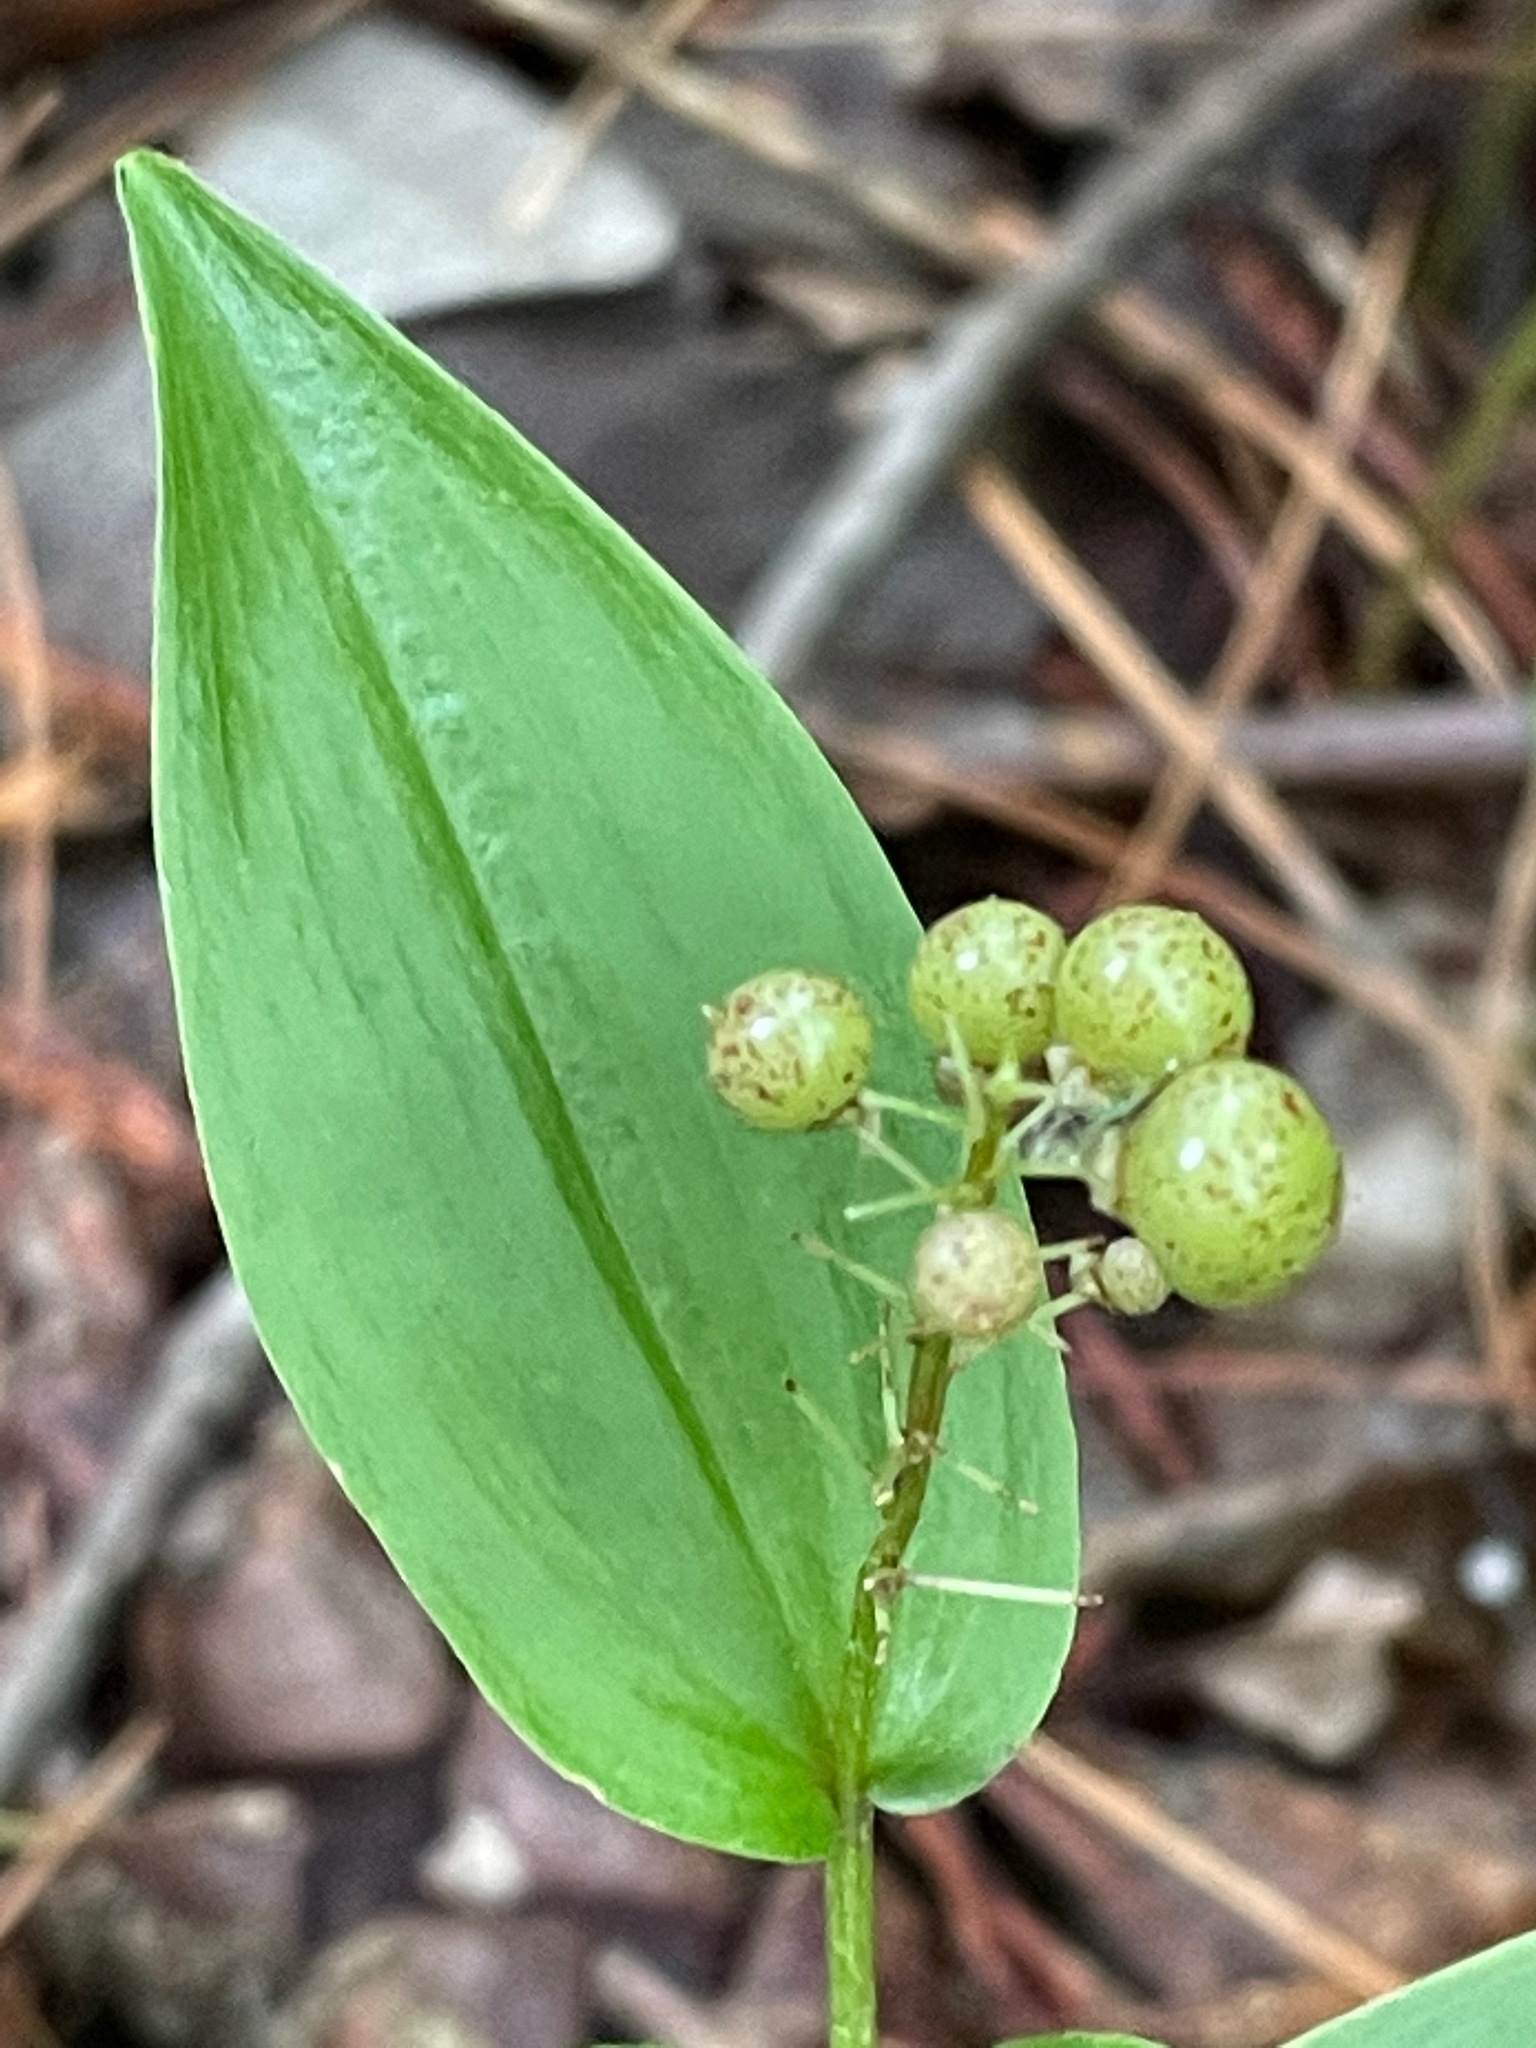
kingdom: Plantae
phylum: Tracheophyta
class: Liliopsida
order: Asparagales
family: Asparagaceae
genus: Maianthemum
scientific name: Maianthemum canadense
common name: False lily-of-the-valley
